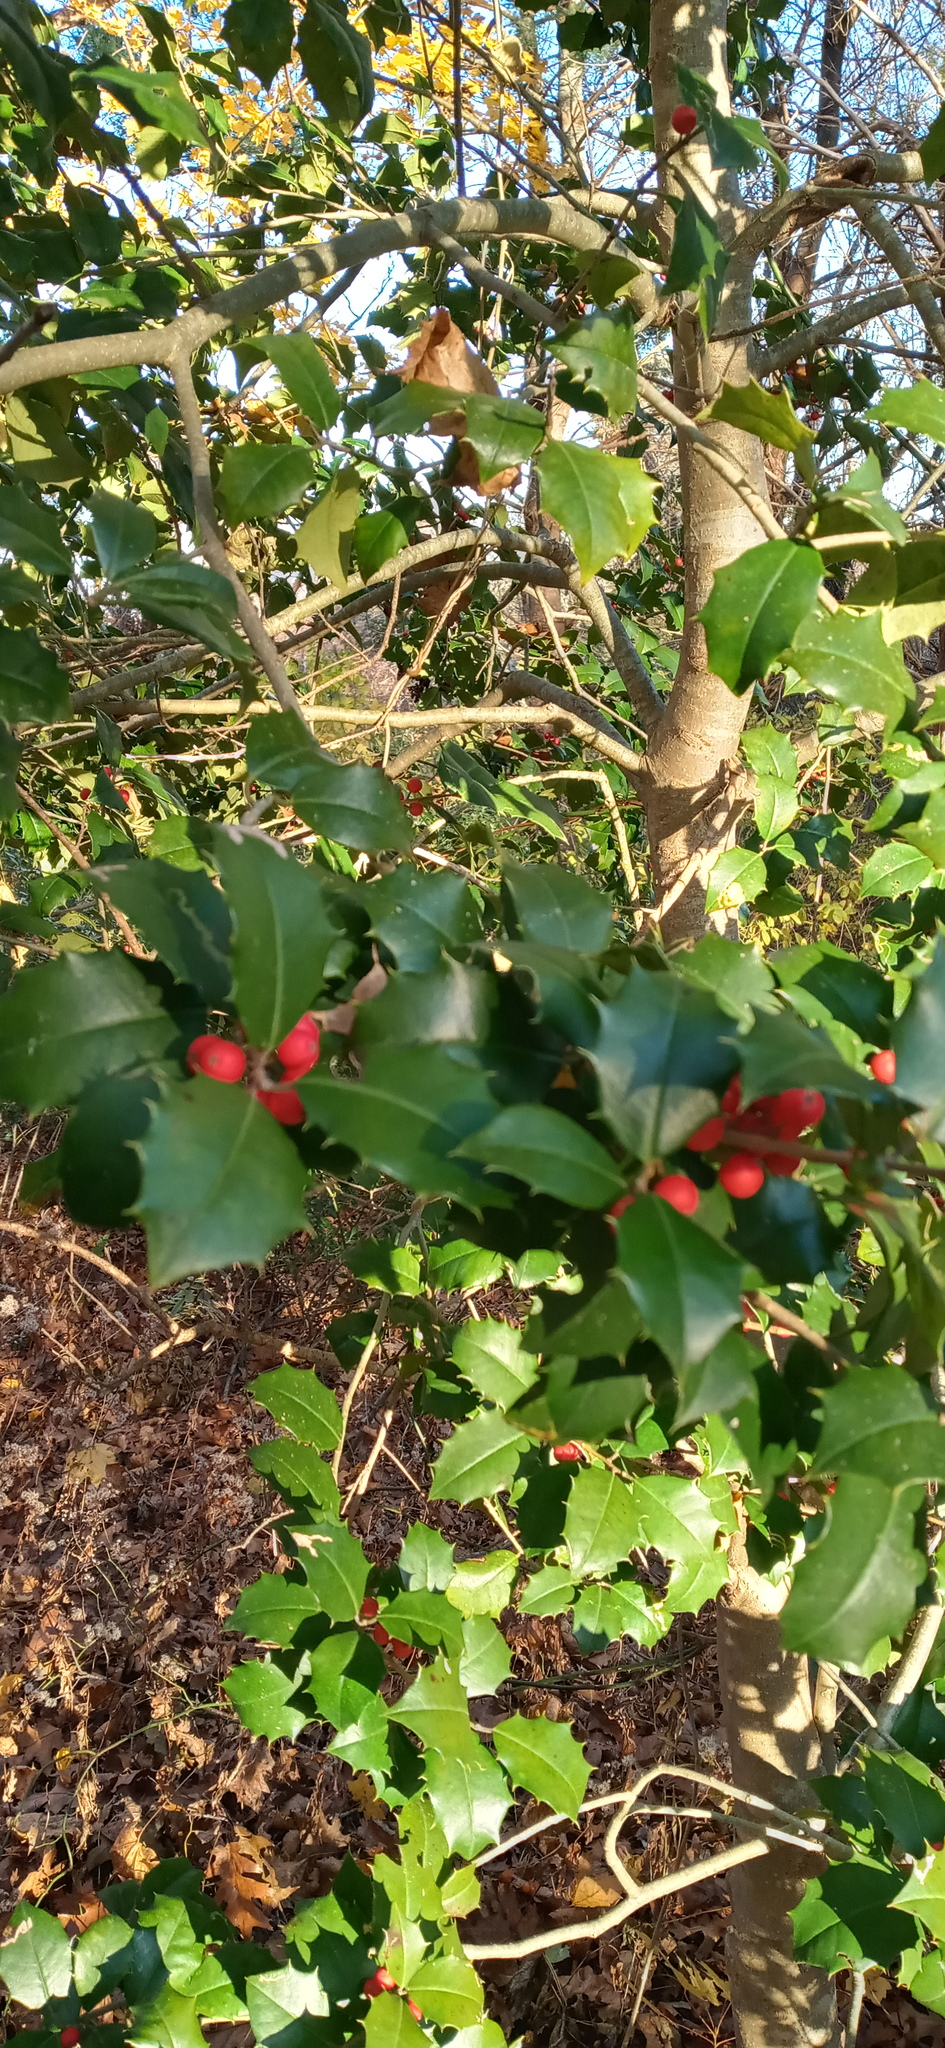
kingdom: Plantae
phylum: Tracheophyta
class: Magnoliopsida
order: Aquifoliales
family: Aquifoliaceae
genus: Ilex
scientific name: Ilex opaca
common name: American holly
